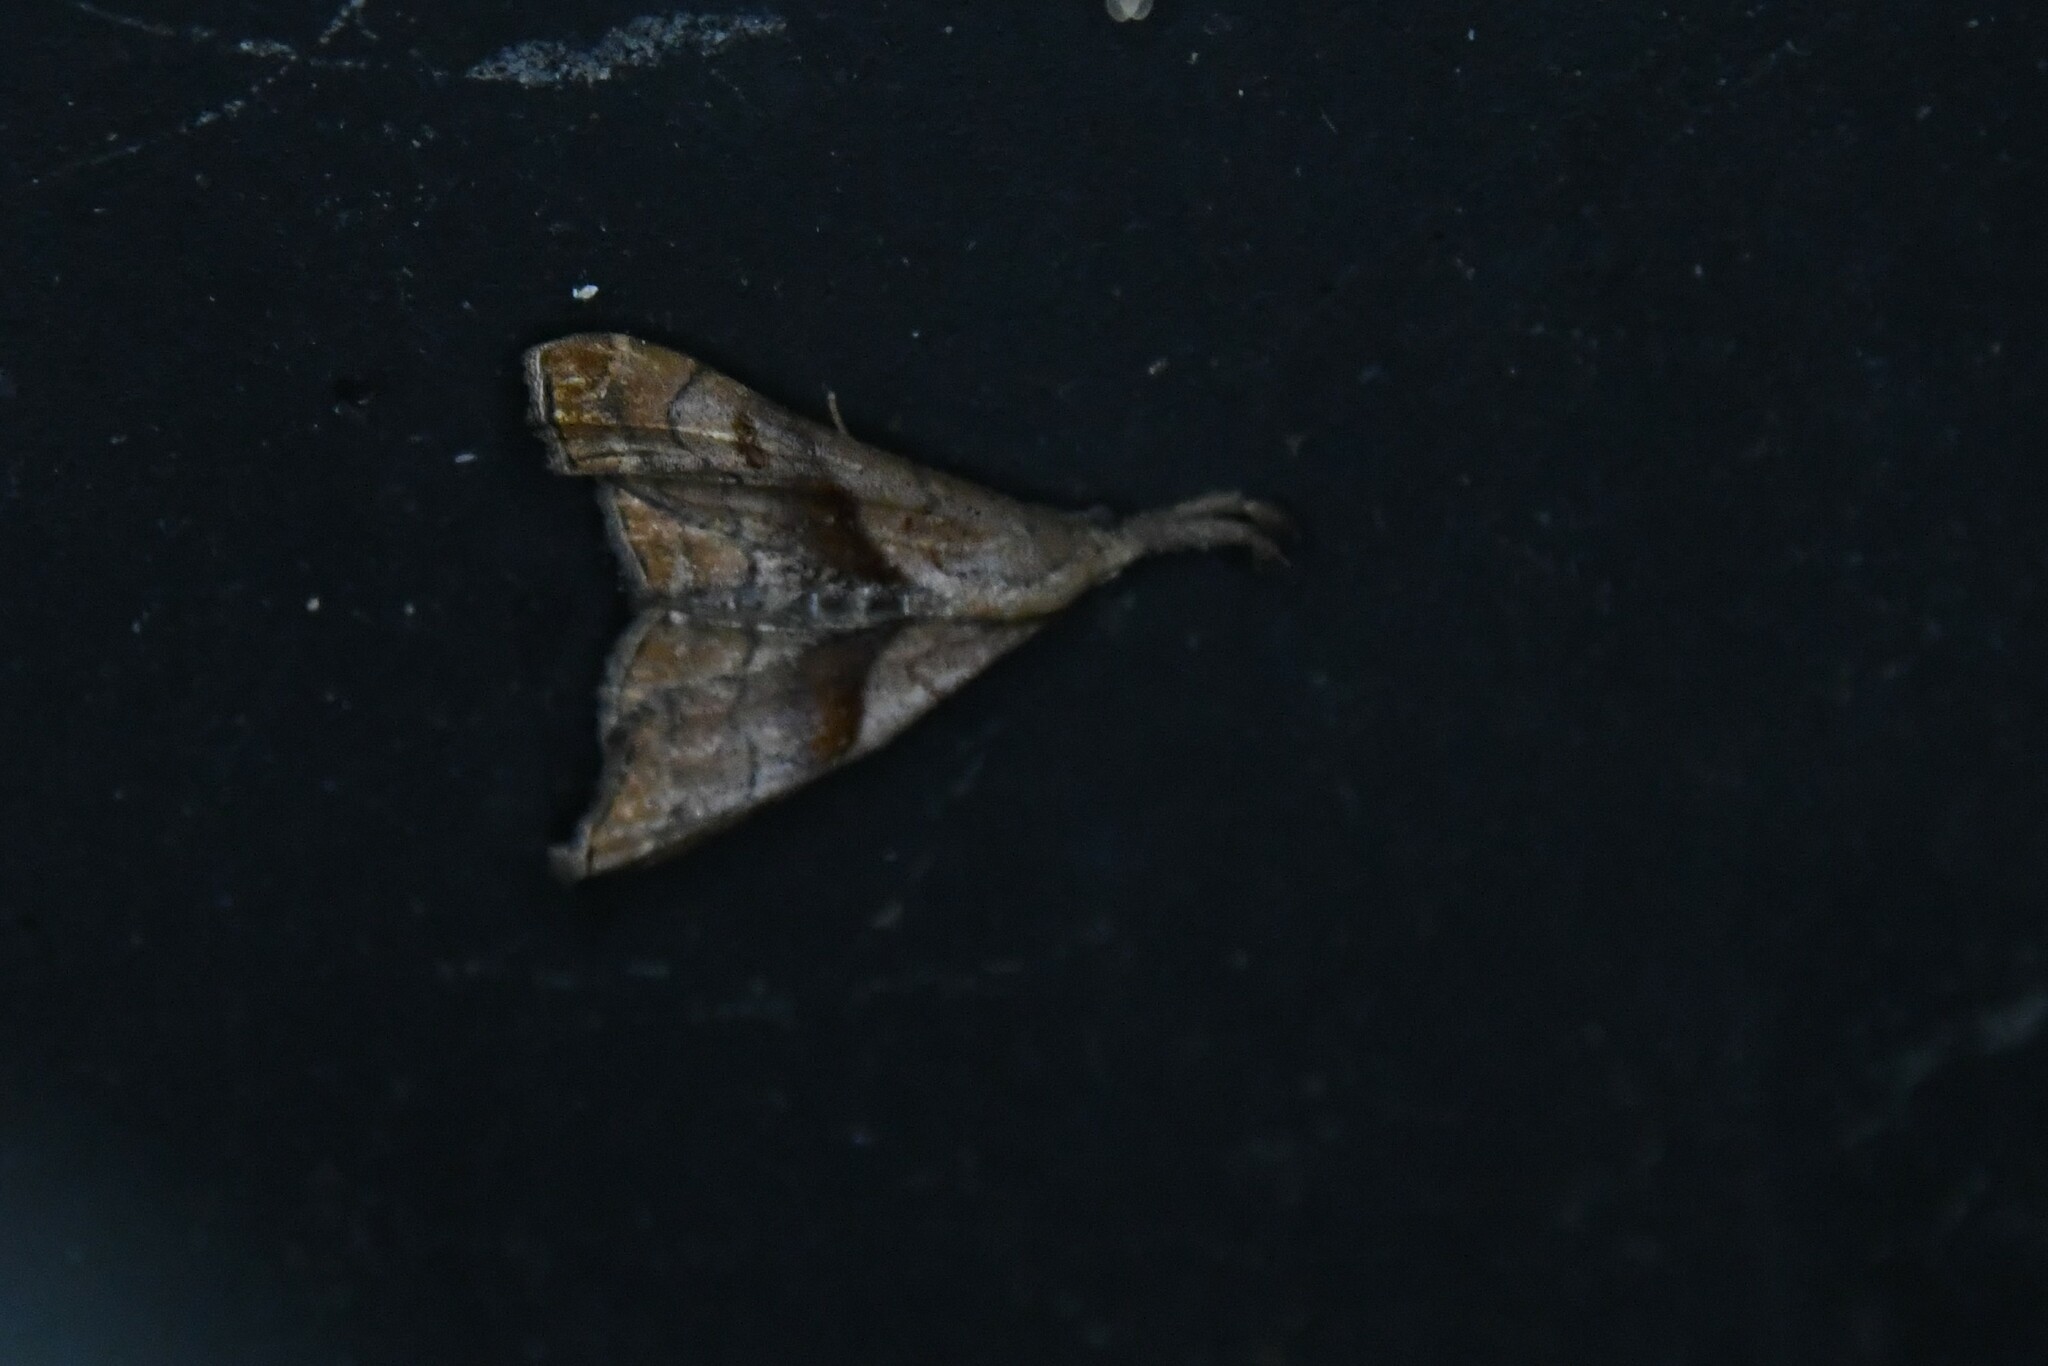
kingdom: Animalia
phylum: Arthropoda
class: Insecta
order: Lepidoptera
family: Erebidae
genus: Palthis
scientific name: Palthis angulalis
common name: Dark-spotted palthis moth
